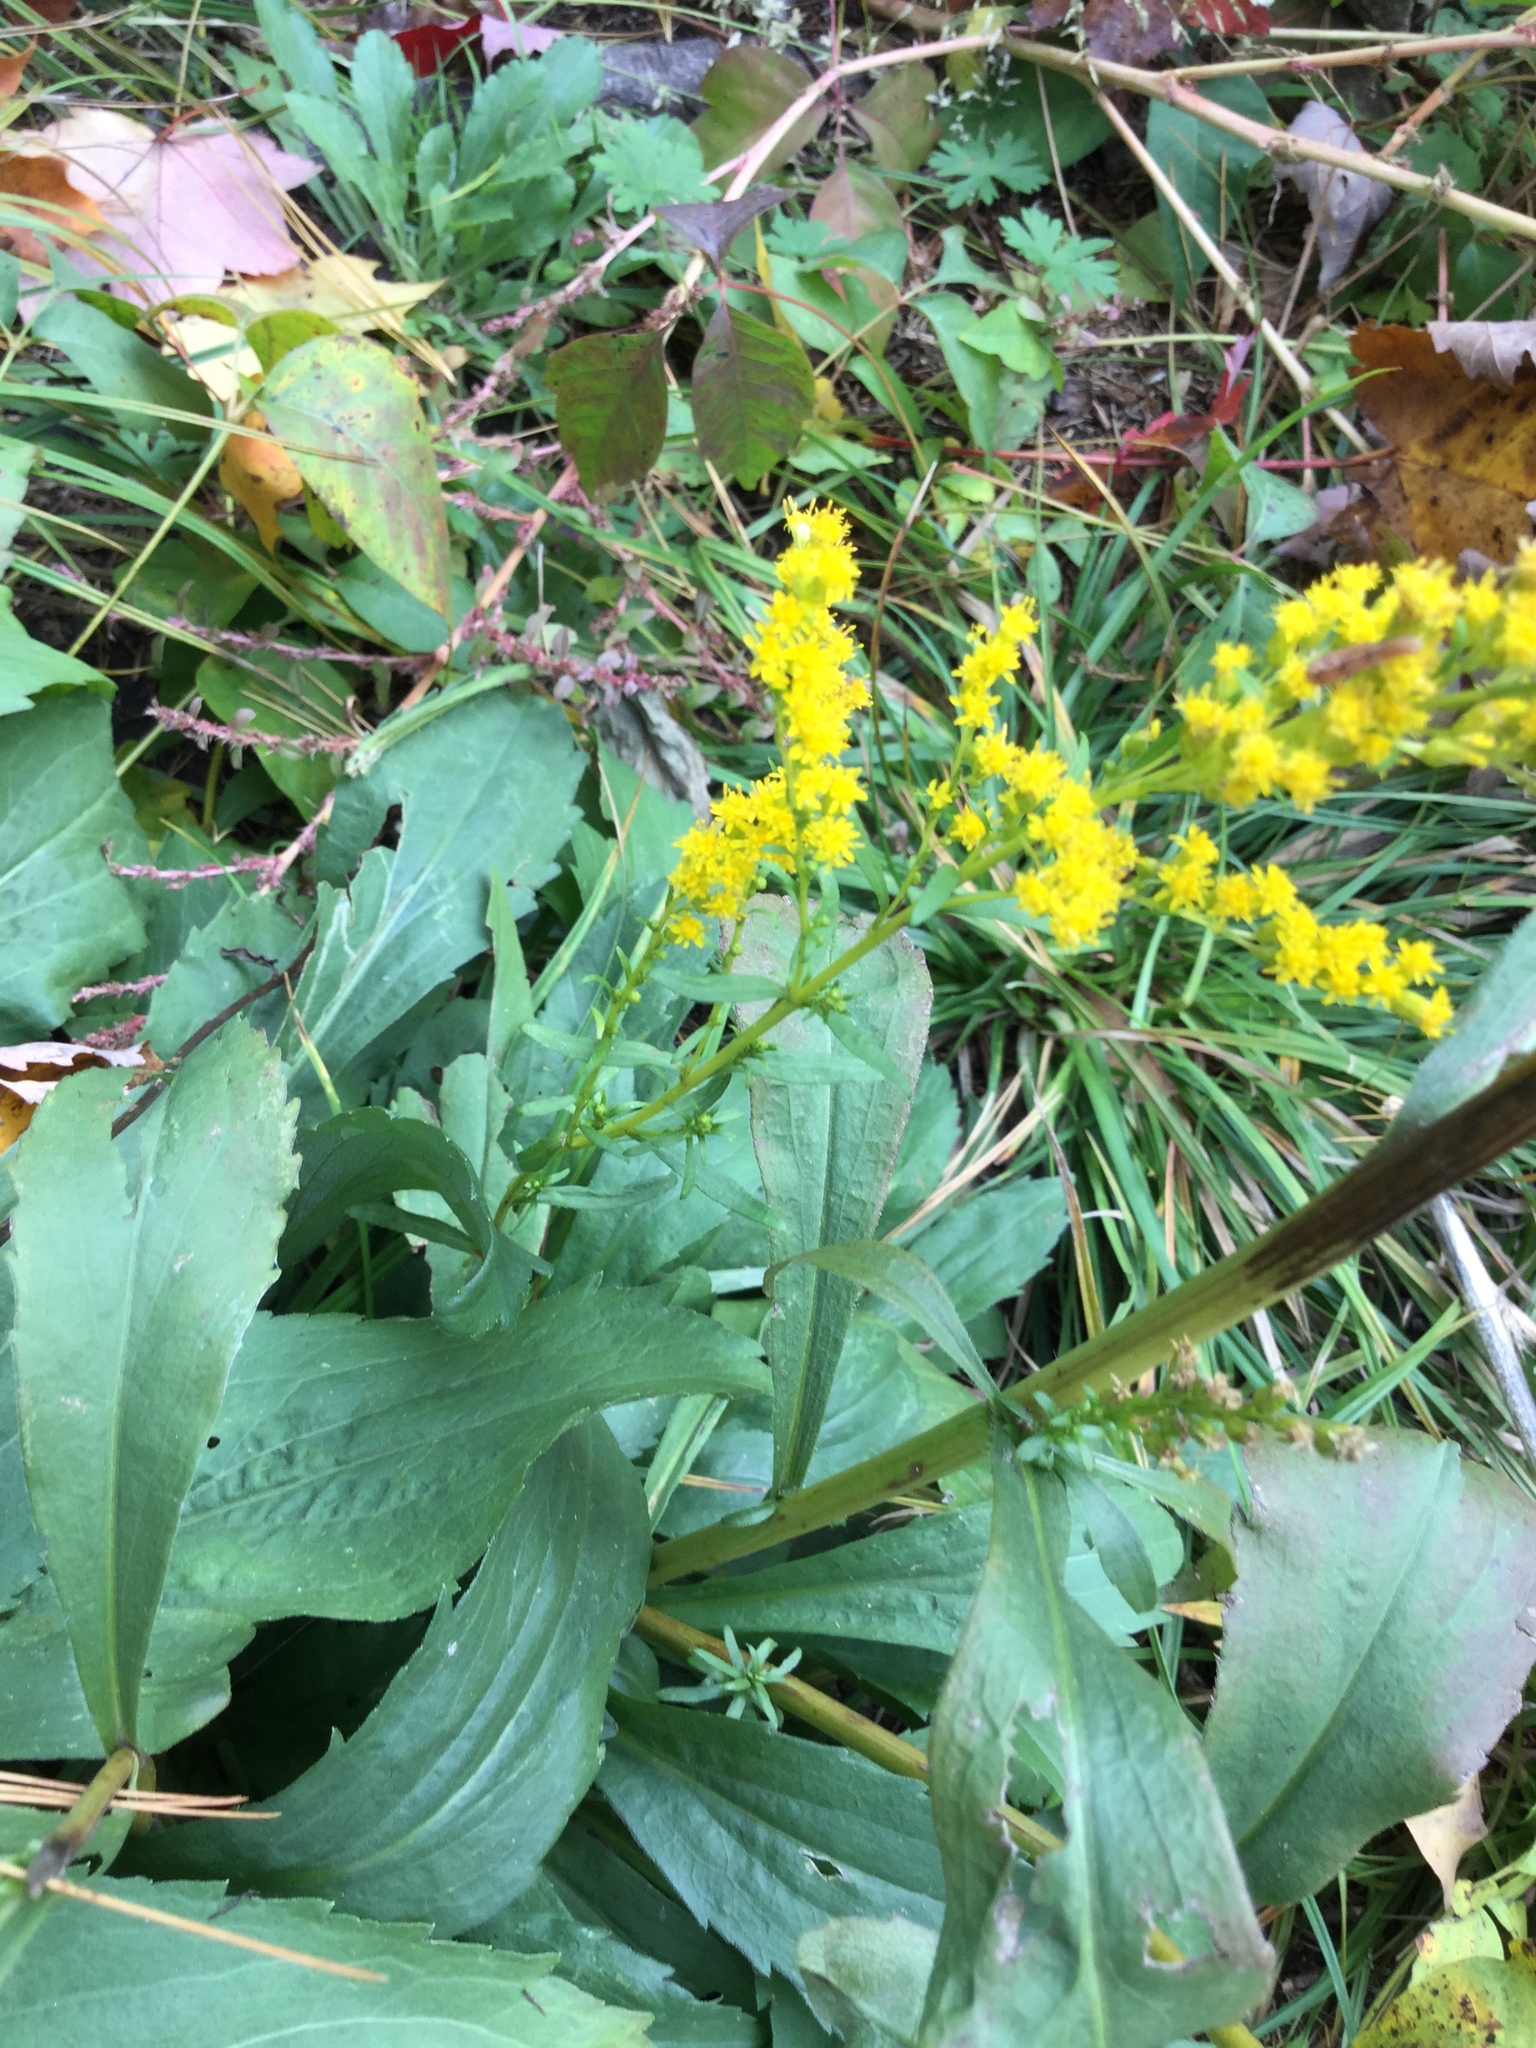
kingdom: Plantae
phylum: Tracheophyta
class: Magnoliopsida
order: Asterales
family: Asteraceae
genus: Solidago
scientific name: Solidago juncea
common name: Early goldenrod
